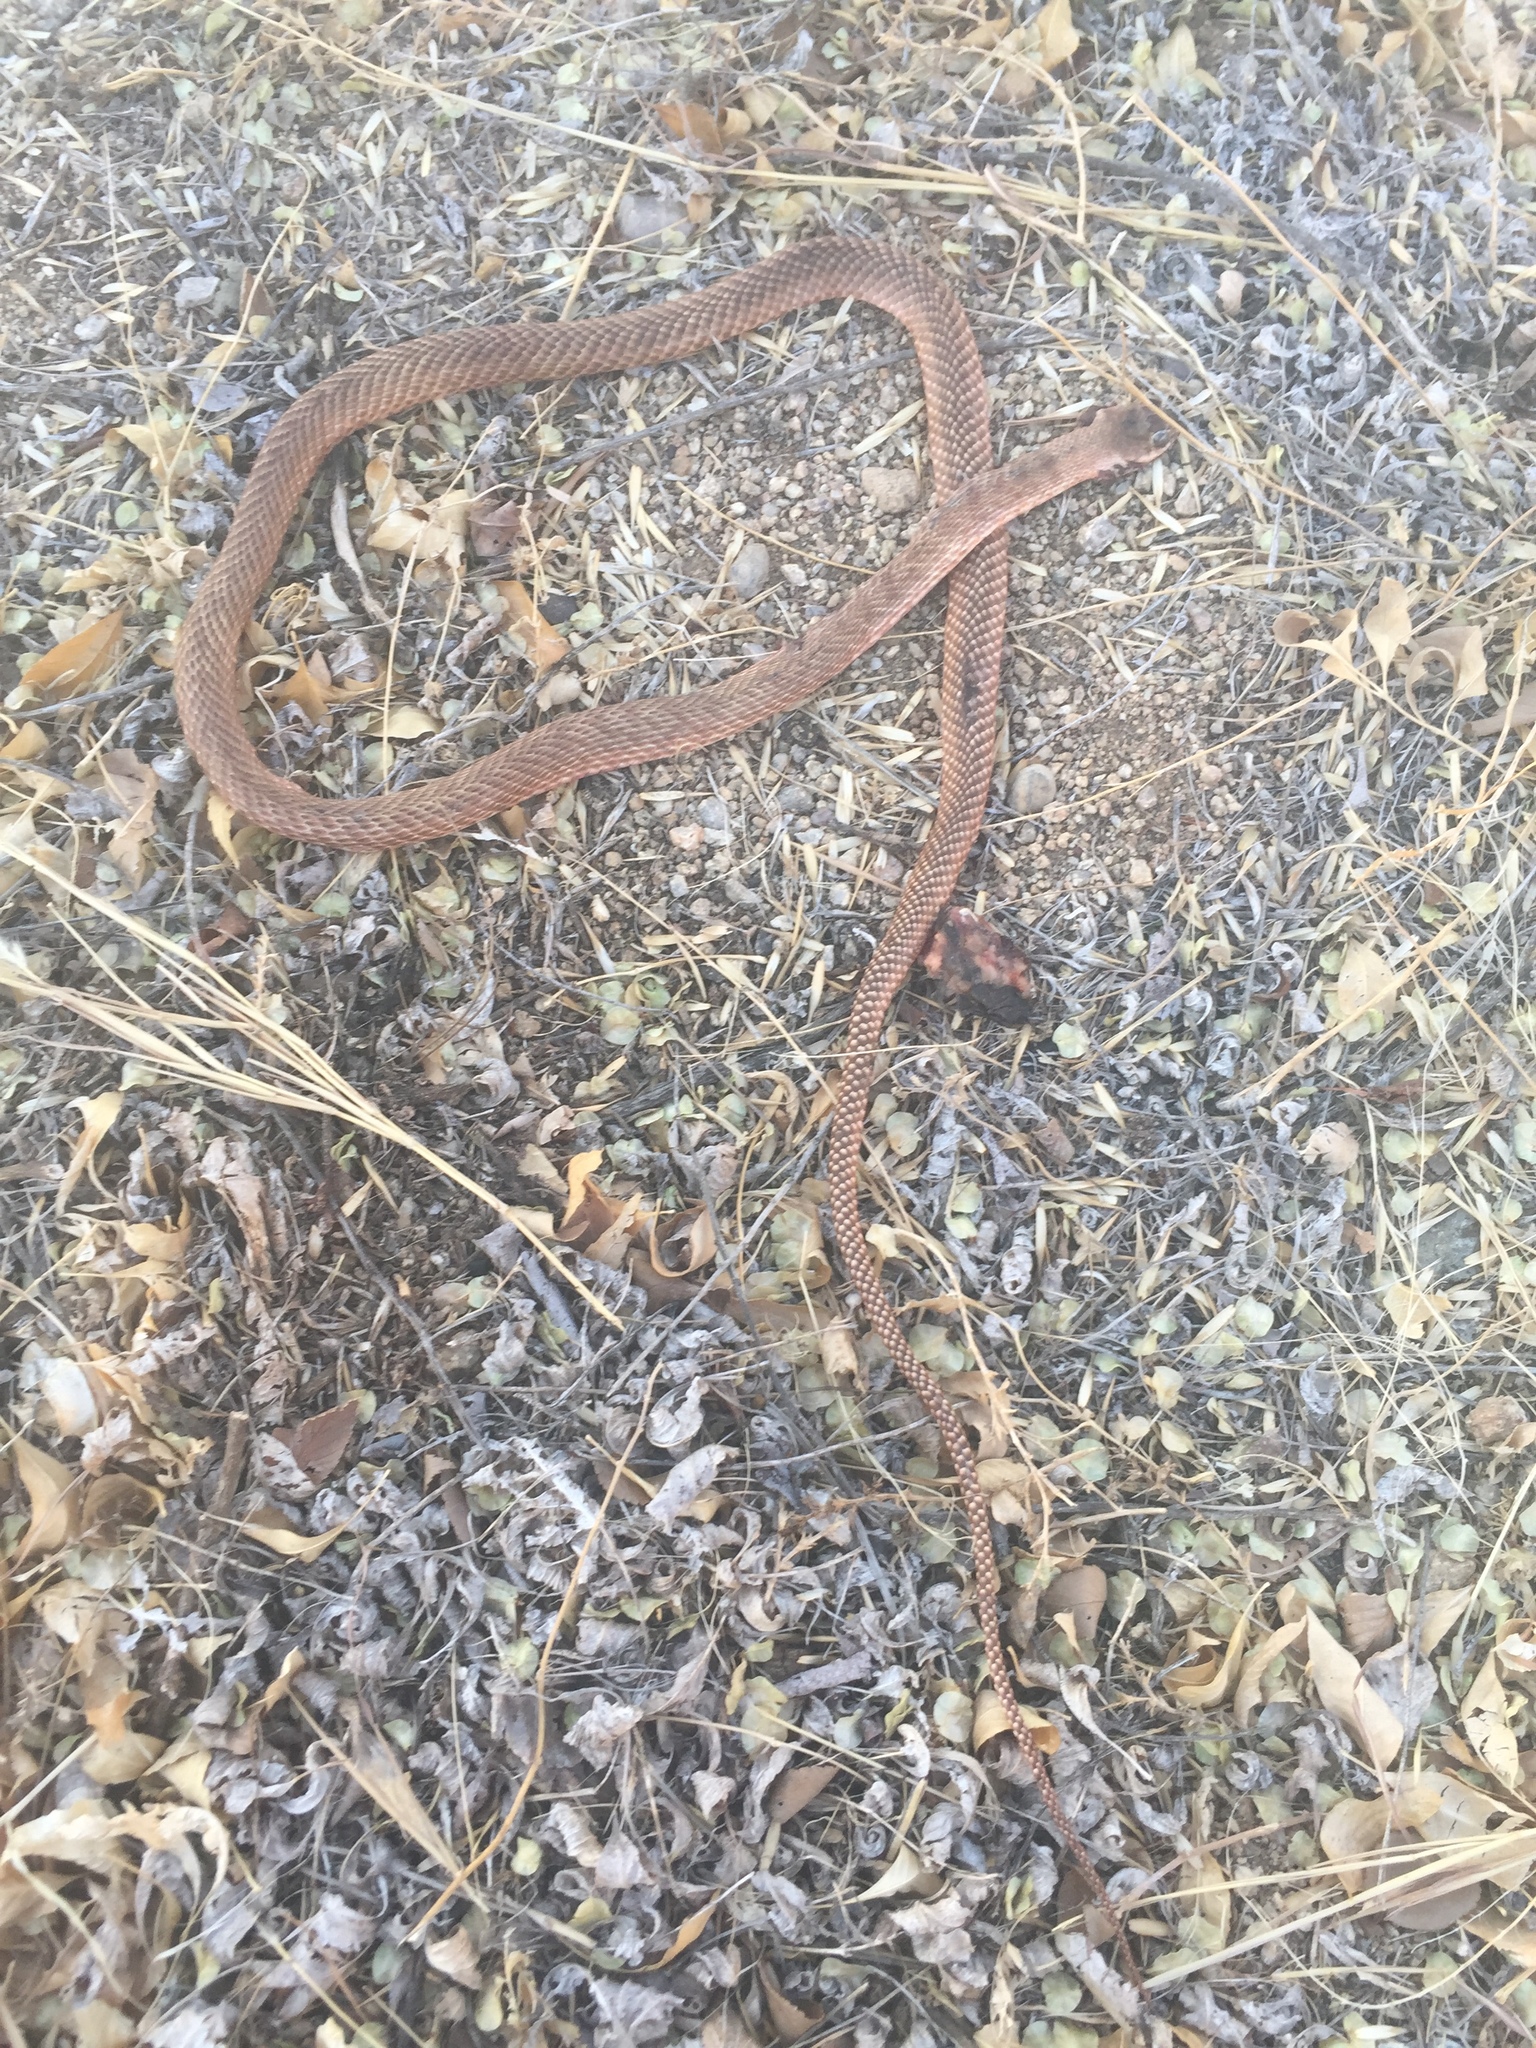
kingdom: Animalia
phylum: Chordata
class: Squamata
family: Colubridae
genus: Masticophis
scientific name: Masticophis flagellum
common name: Coachwhip
